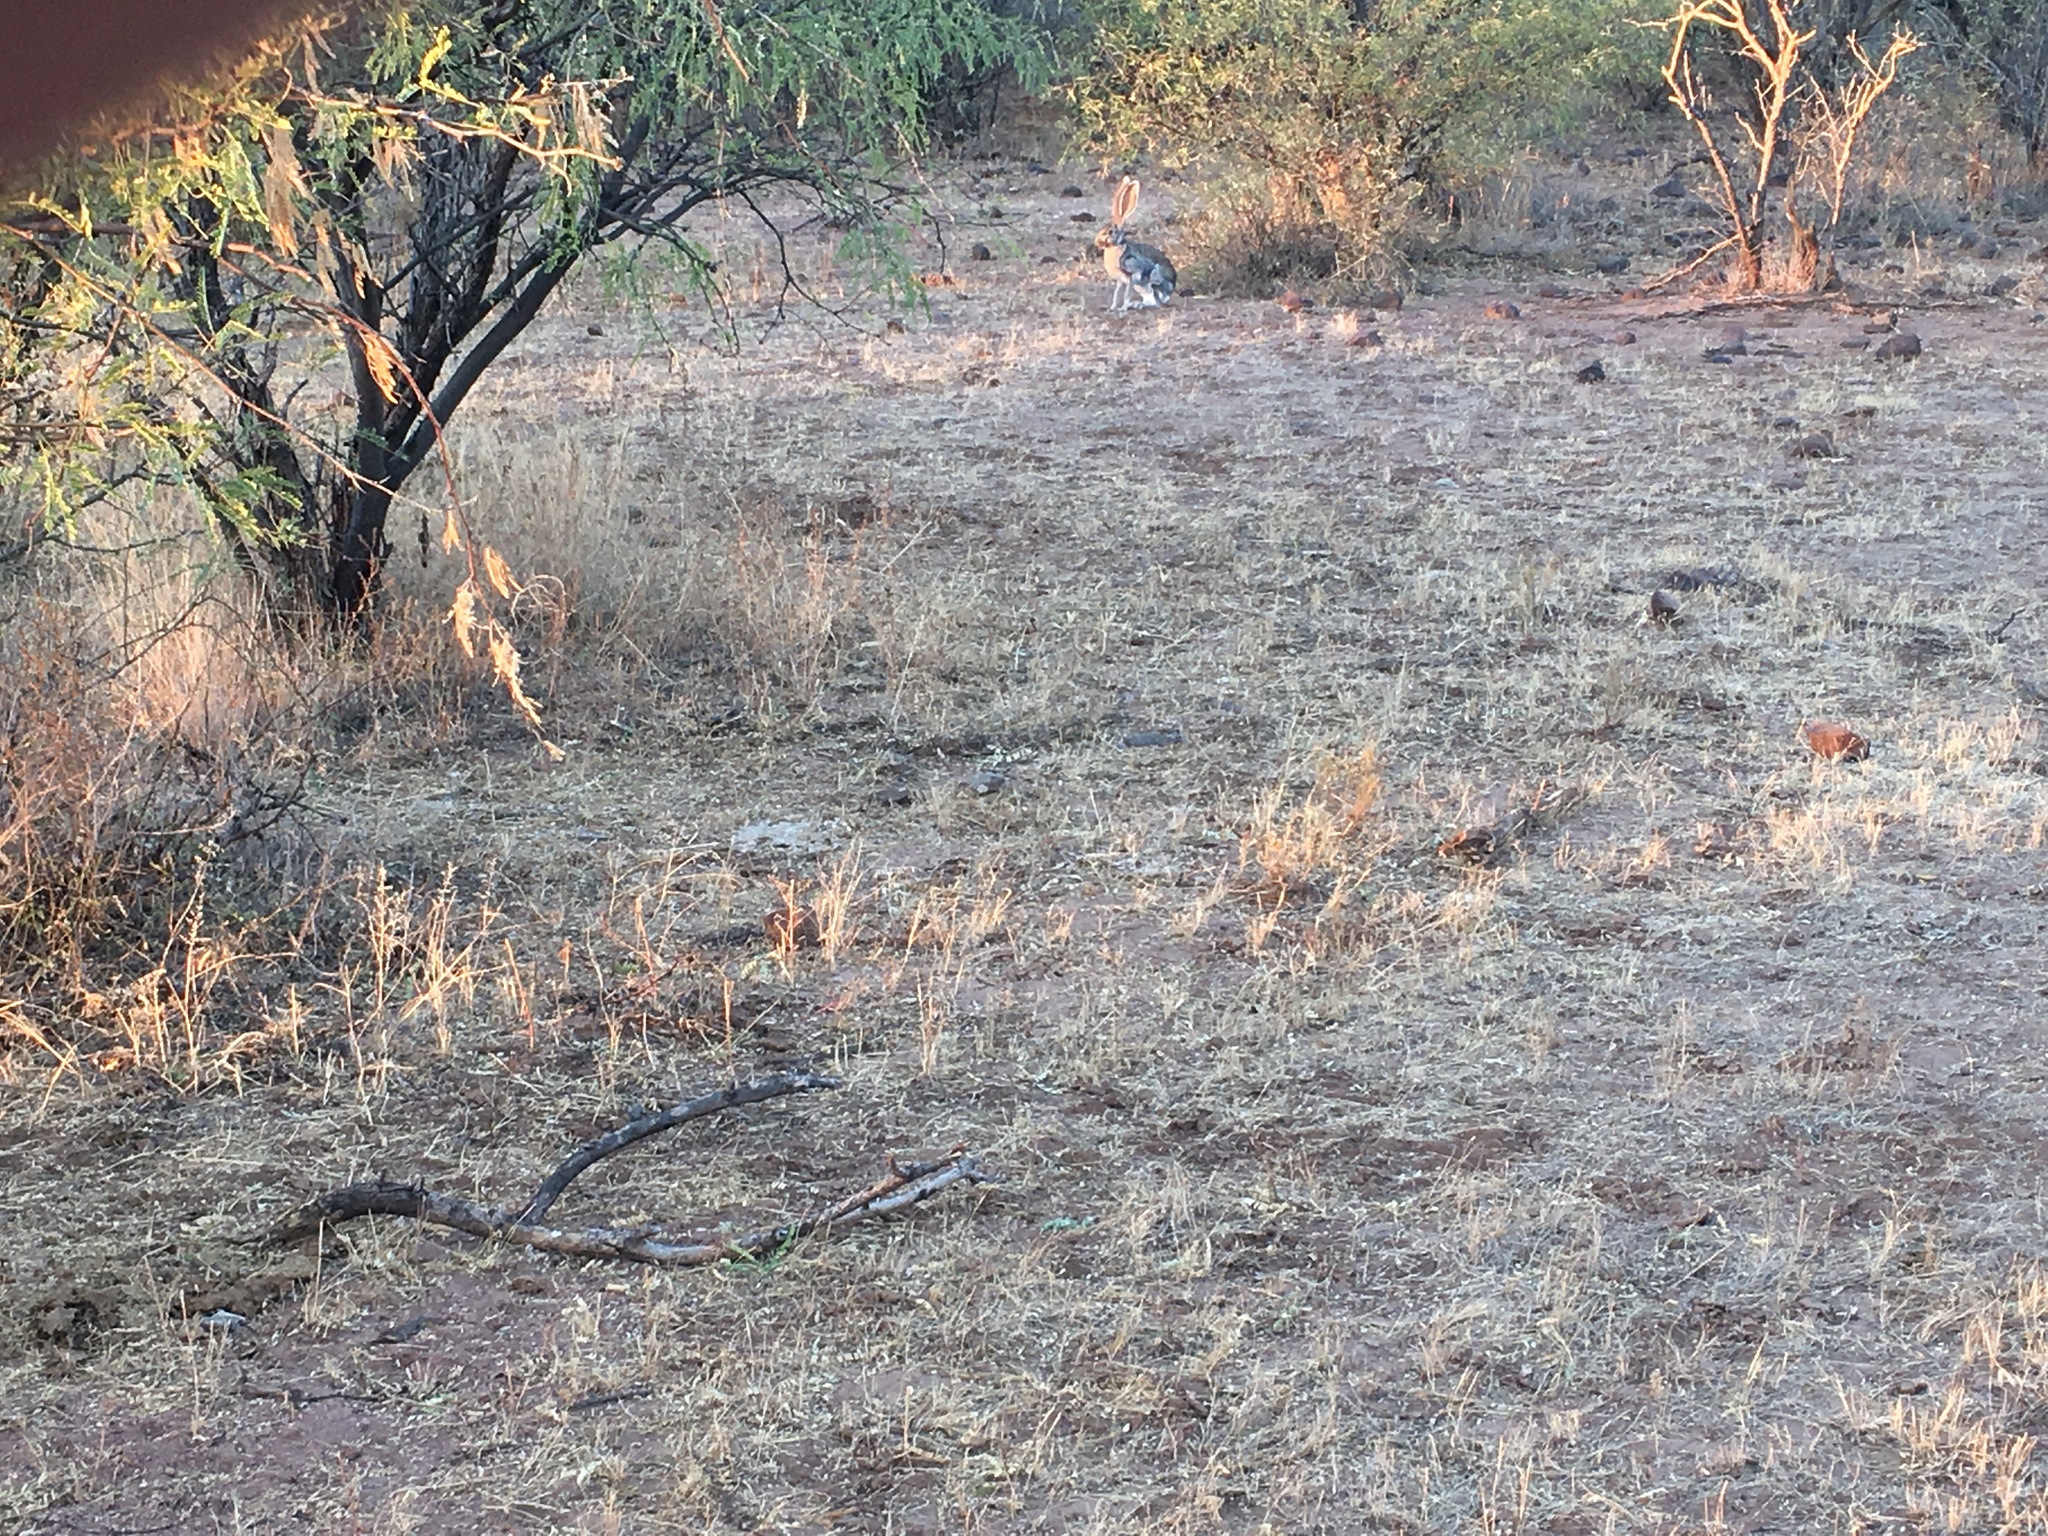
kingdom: Animalia
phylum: Chordata
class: Mammalia
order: Lagomorpha
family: Leporidae
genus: Lepus
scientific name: Lepus alleni
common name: Antelope jackrabbit
